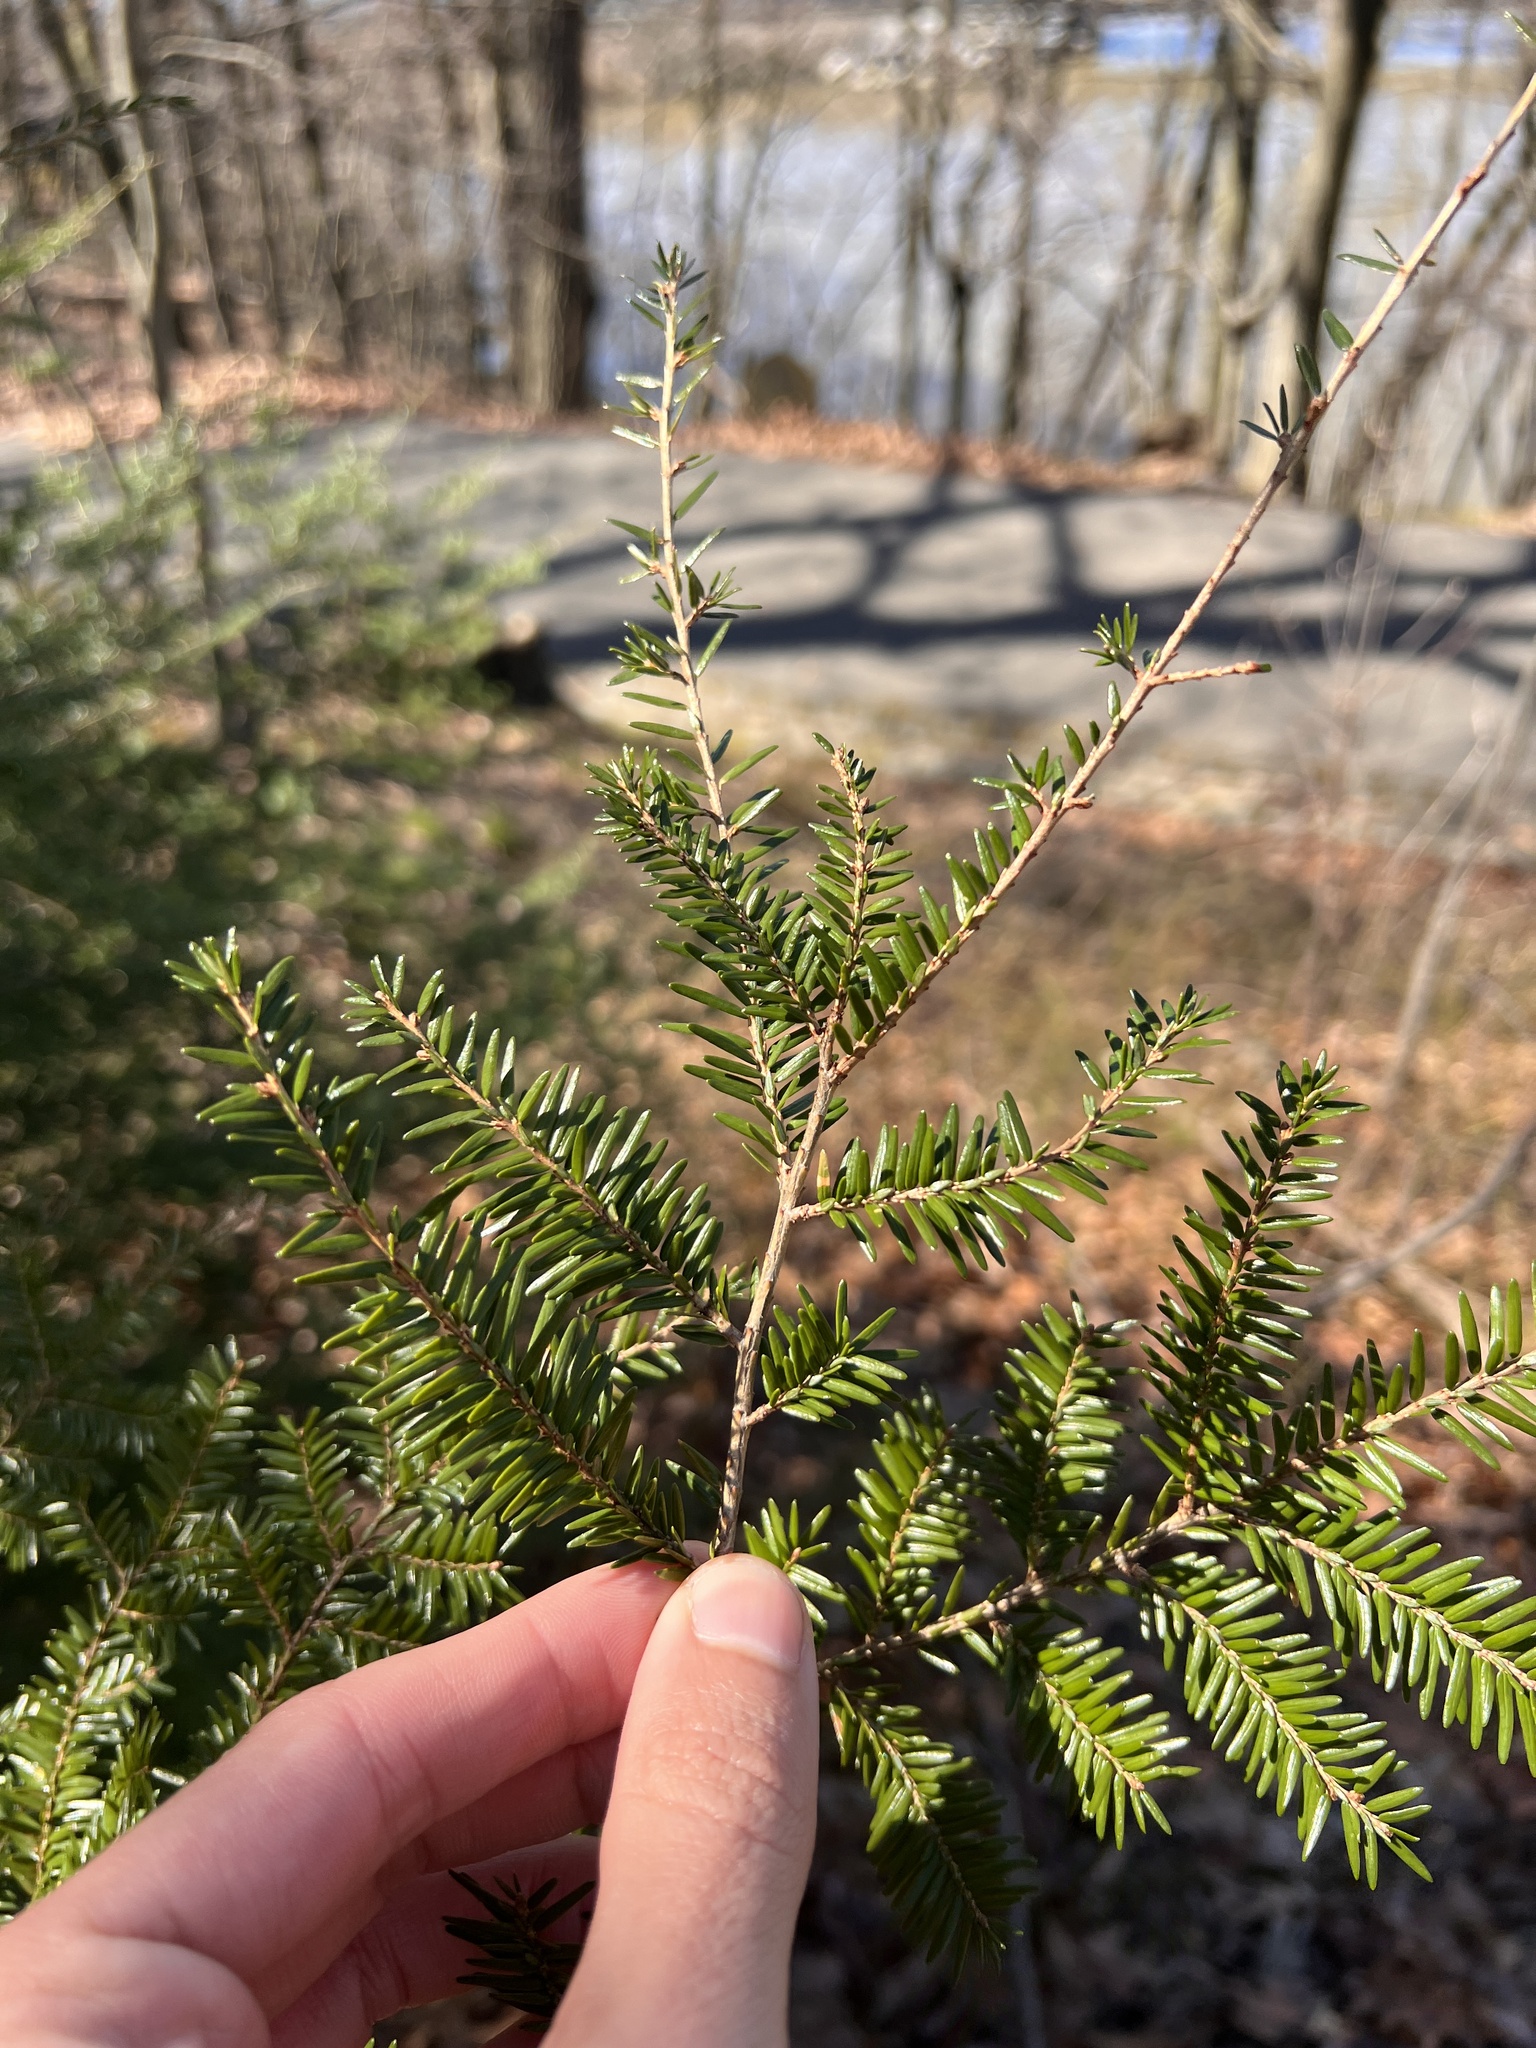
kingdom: Plantae
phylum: Tracheophyta
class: Pinopsida
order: Pinales
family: Pinaceae
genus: Tsuga
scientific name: Tsuga canadensis
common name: Eastern hemlock
